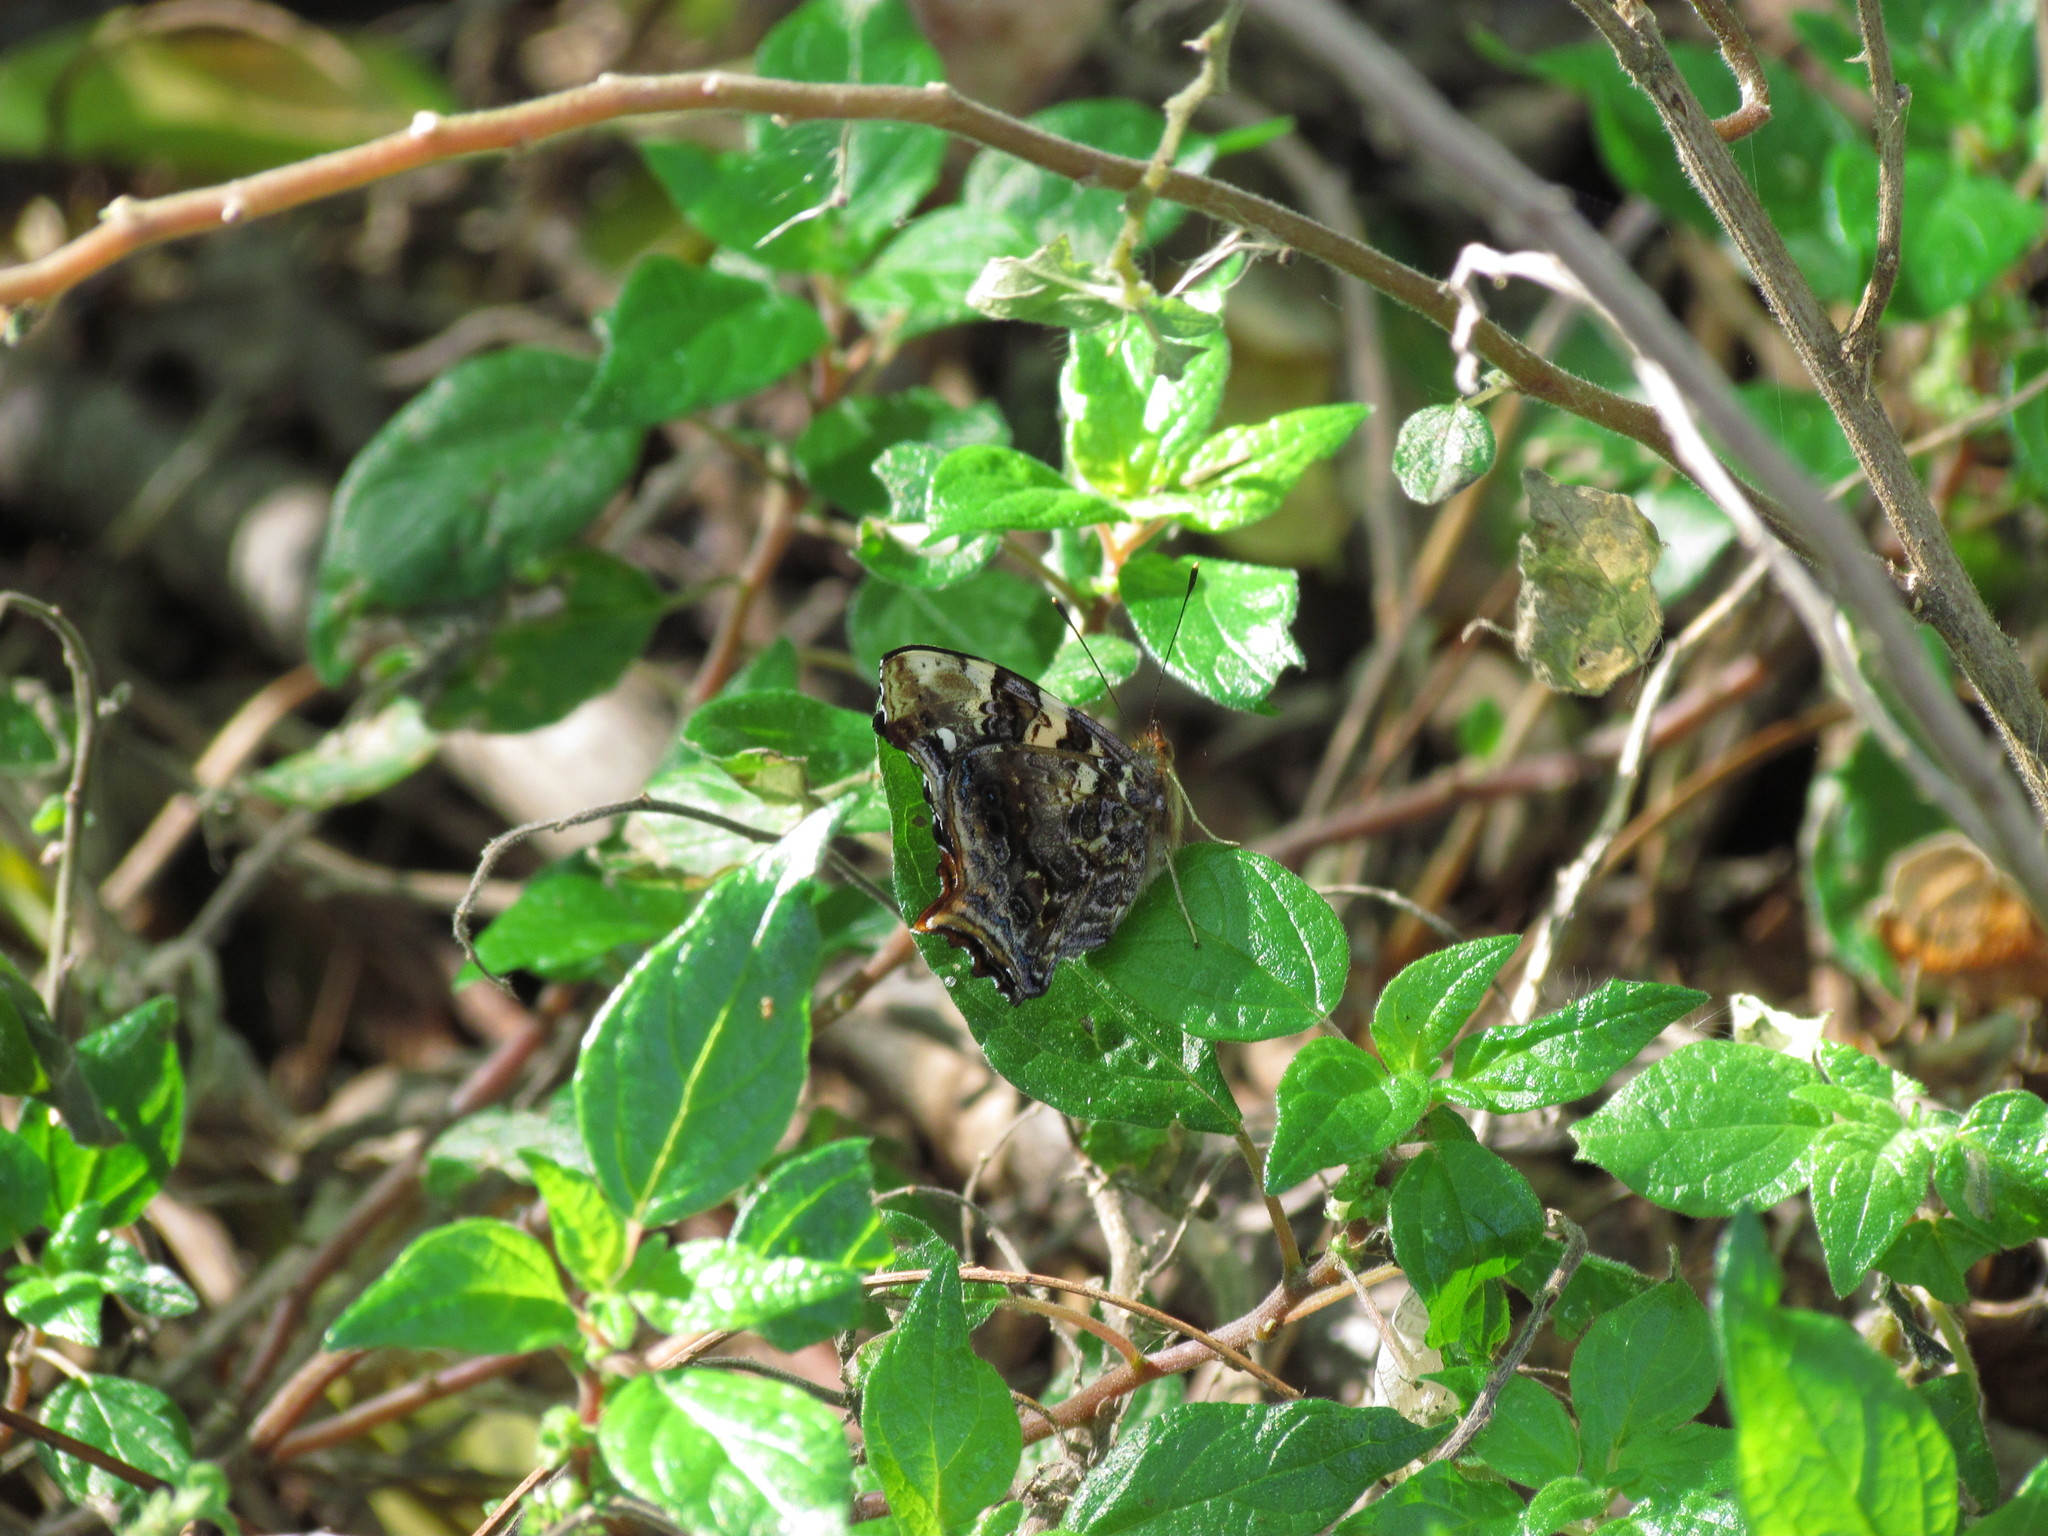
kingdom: Animalia
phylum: Arthropoda
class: Insecta
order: Lepidoptera
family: Nymphalidae
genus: Hypanartia
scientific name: Hypanartia bella
